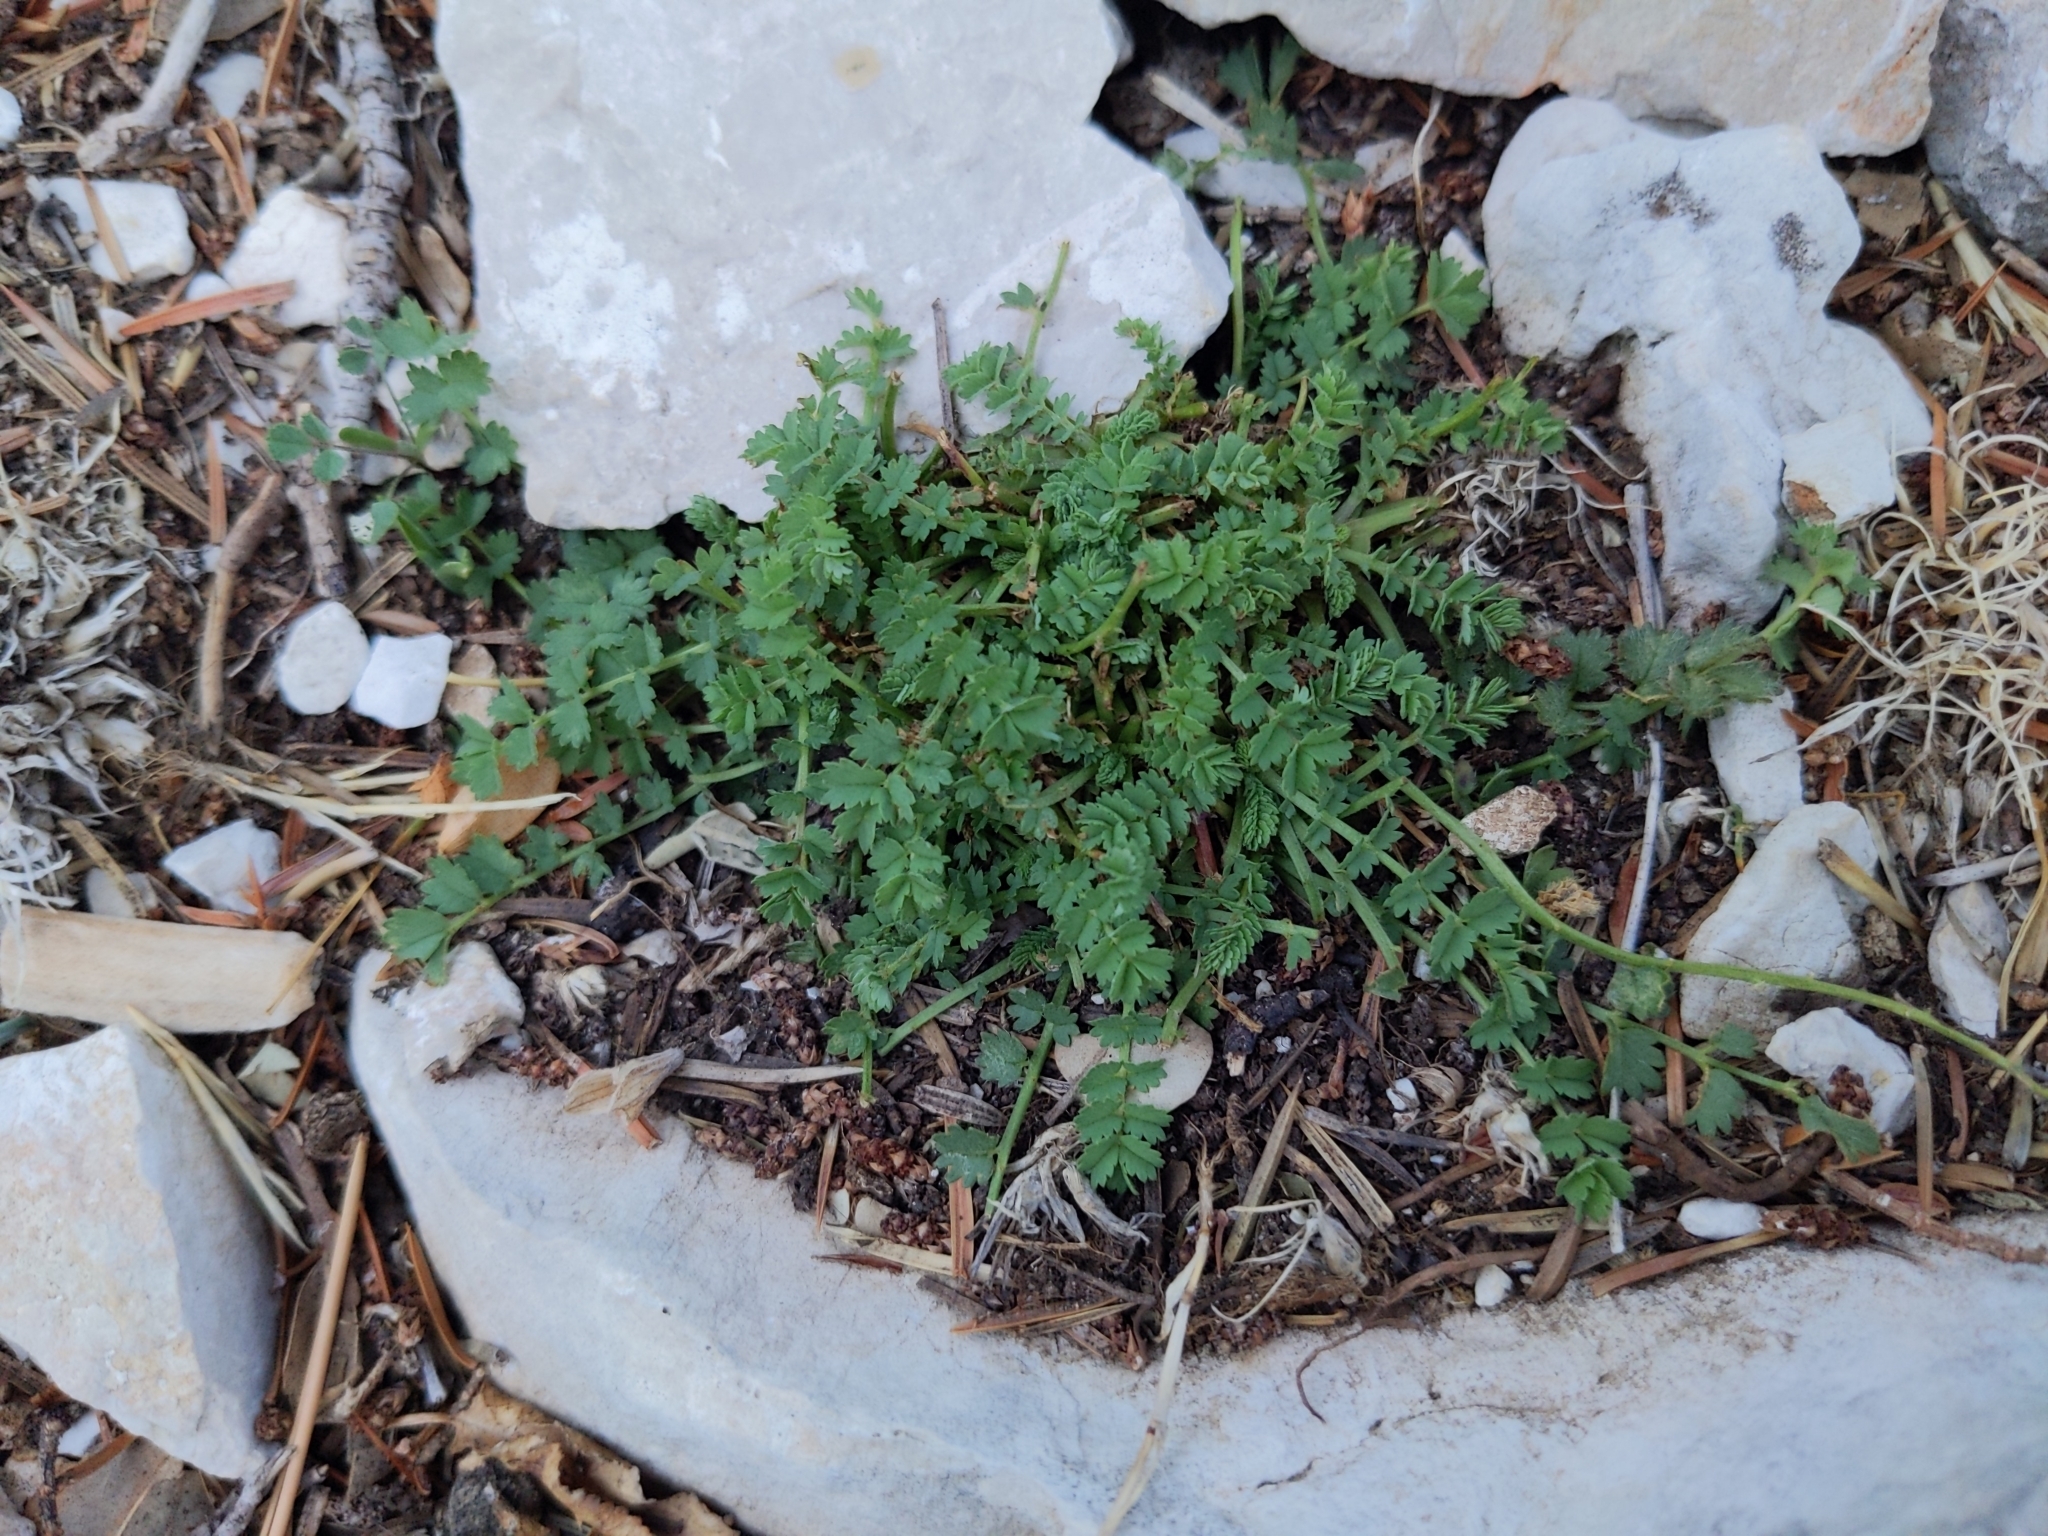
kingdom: Plantae
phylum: Tracheophyta
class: Magnoliopsida
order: Rosales
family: Rosaceae
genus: Poterium
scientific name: Poterium sanguisorba
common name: Salad burnet
